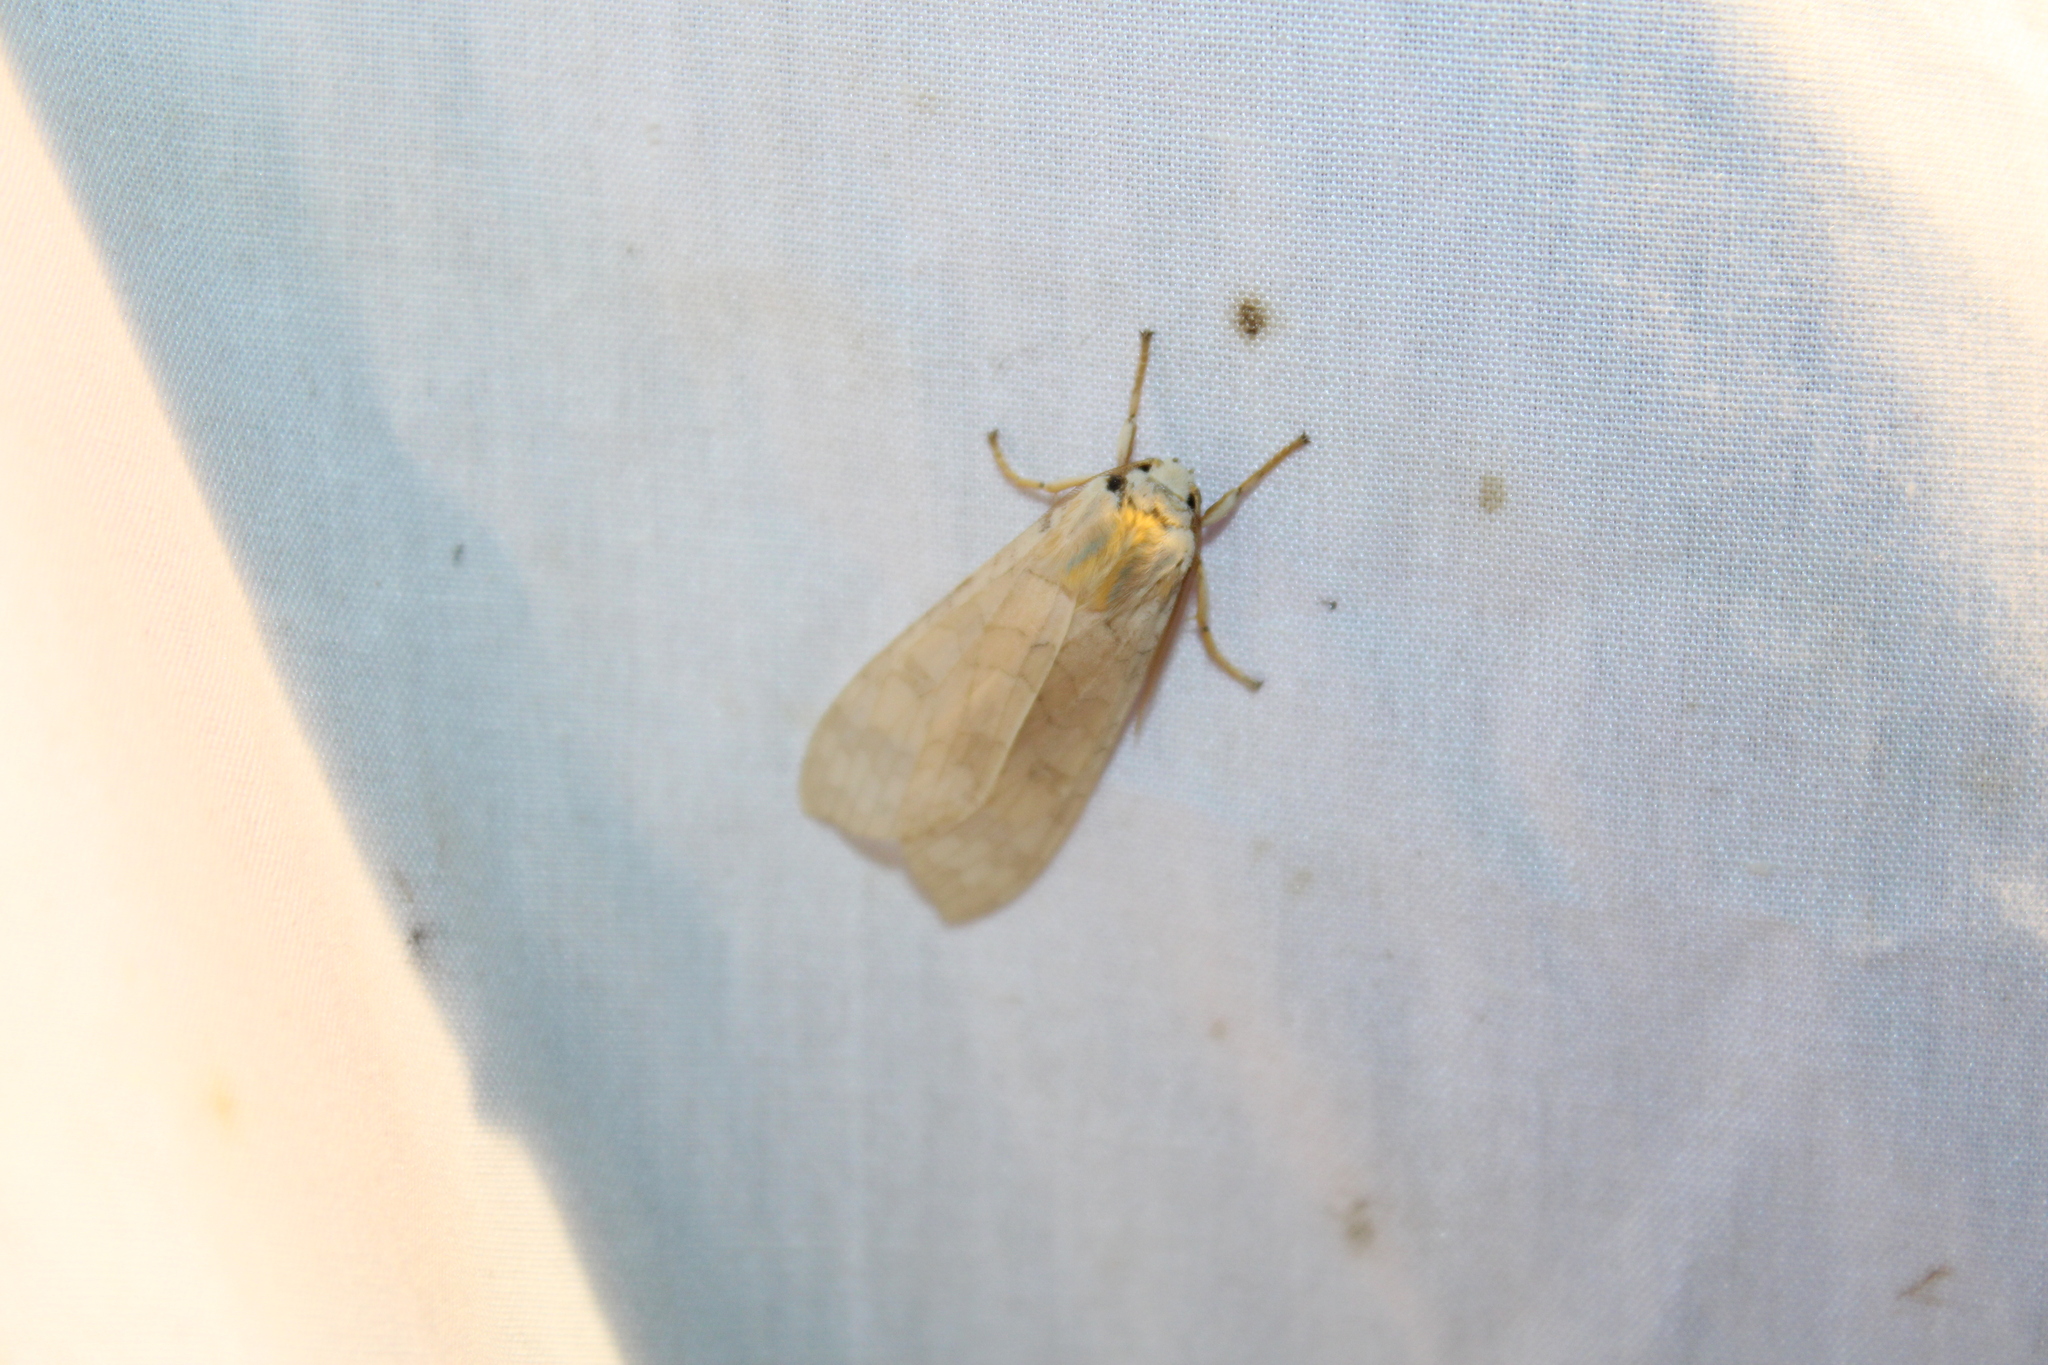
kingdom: Animalia
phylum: Arthropoda
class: Insecta
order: Lepidoptera
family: Erebidae
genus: Halysidota
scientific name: Halysidota
